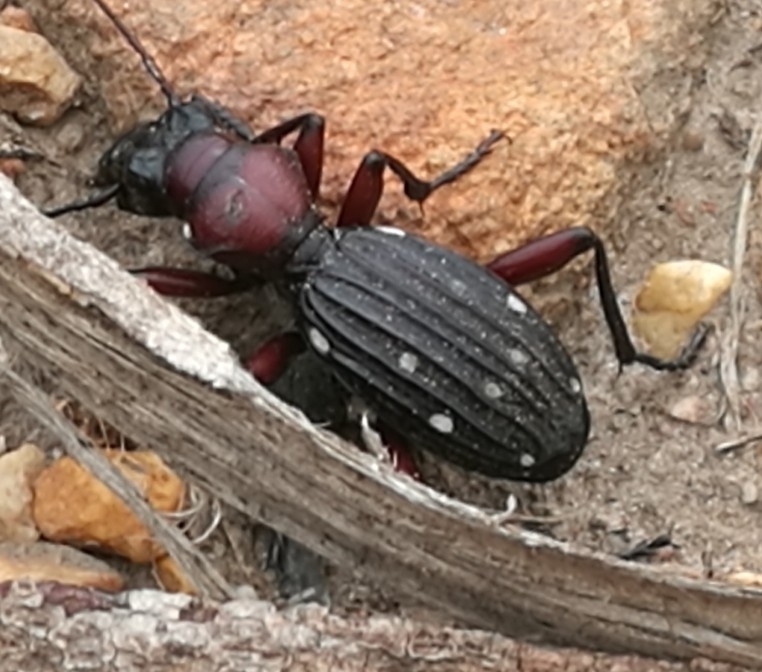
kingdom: Animalia
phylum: Arthropoda
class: Insecta
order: Coleoptera
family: Carabidae
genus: Anthia
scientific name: Anthia decemguttata
